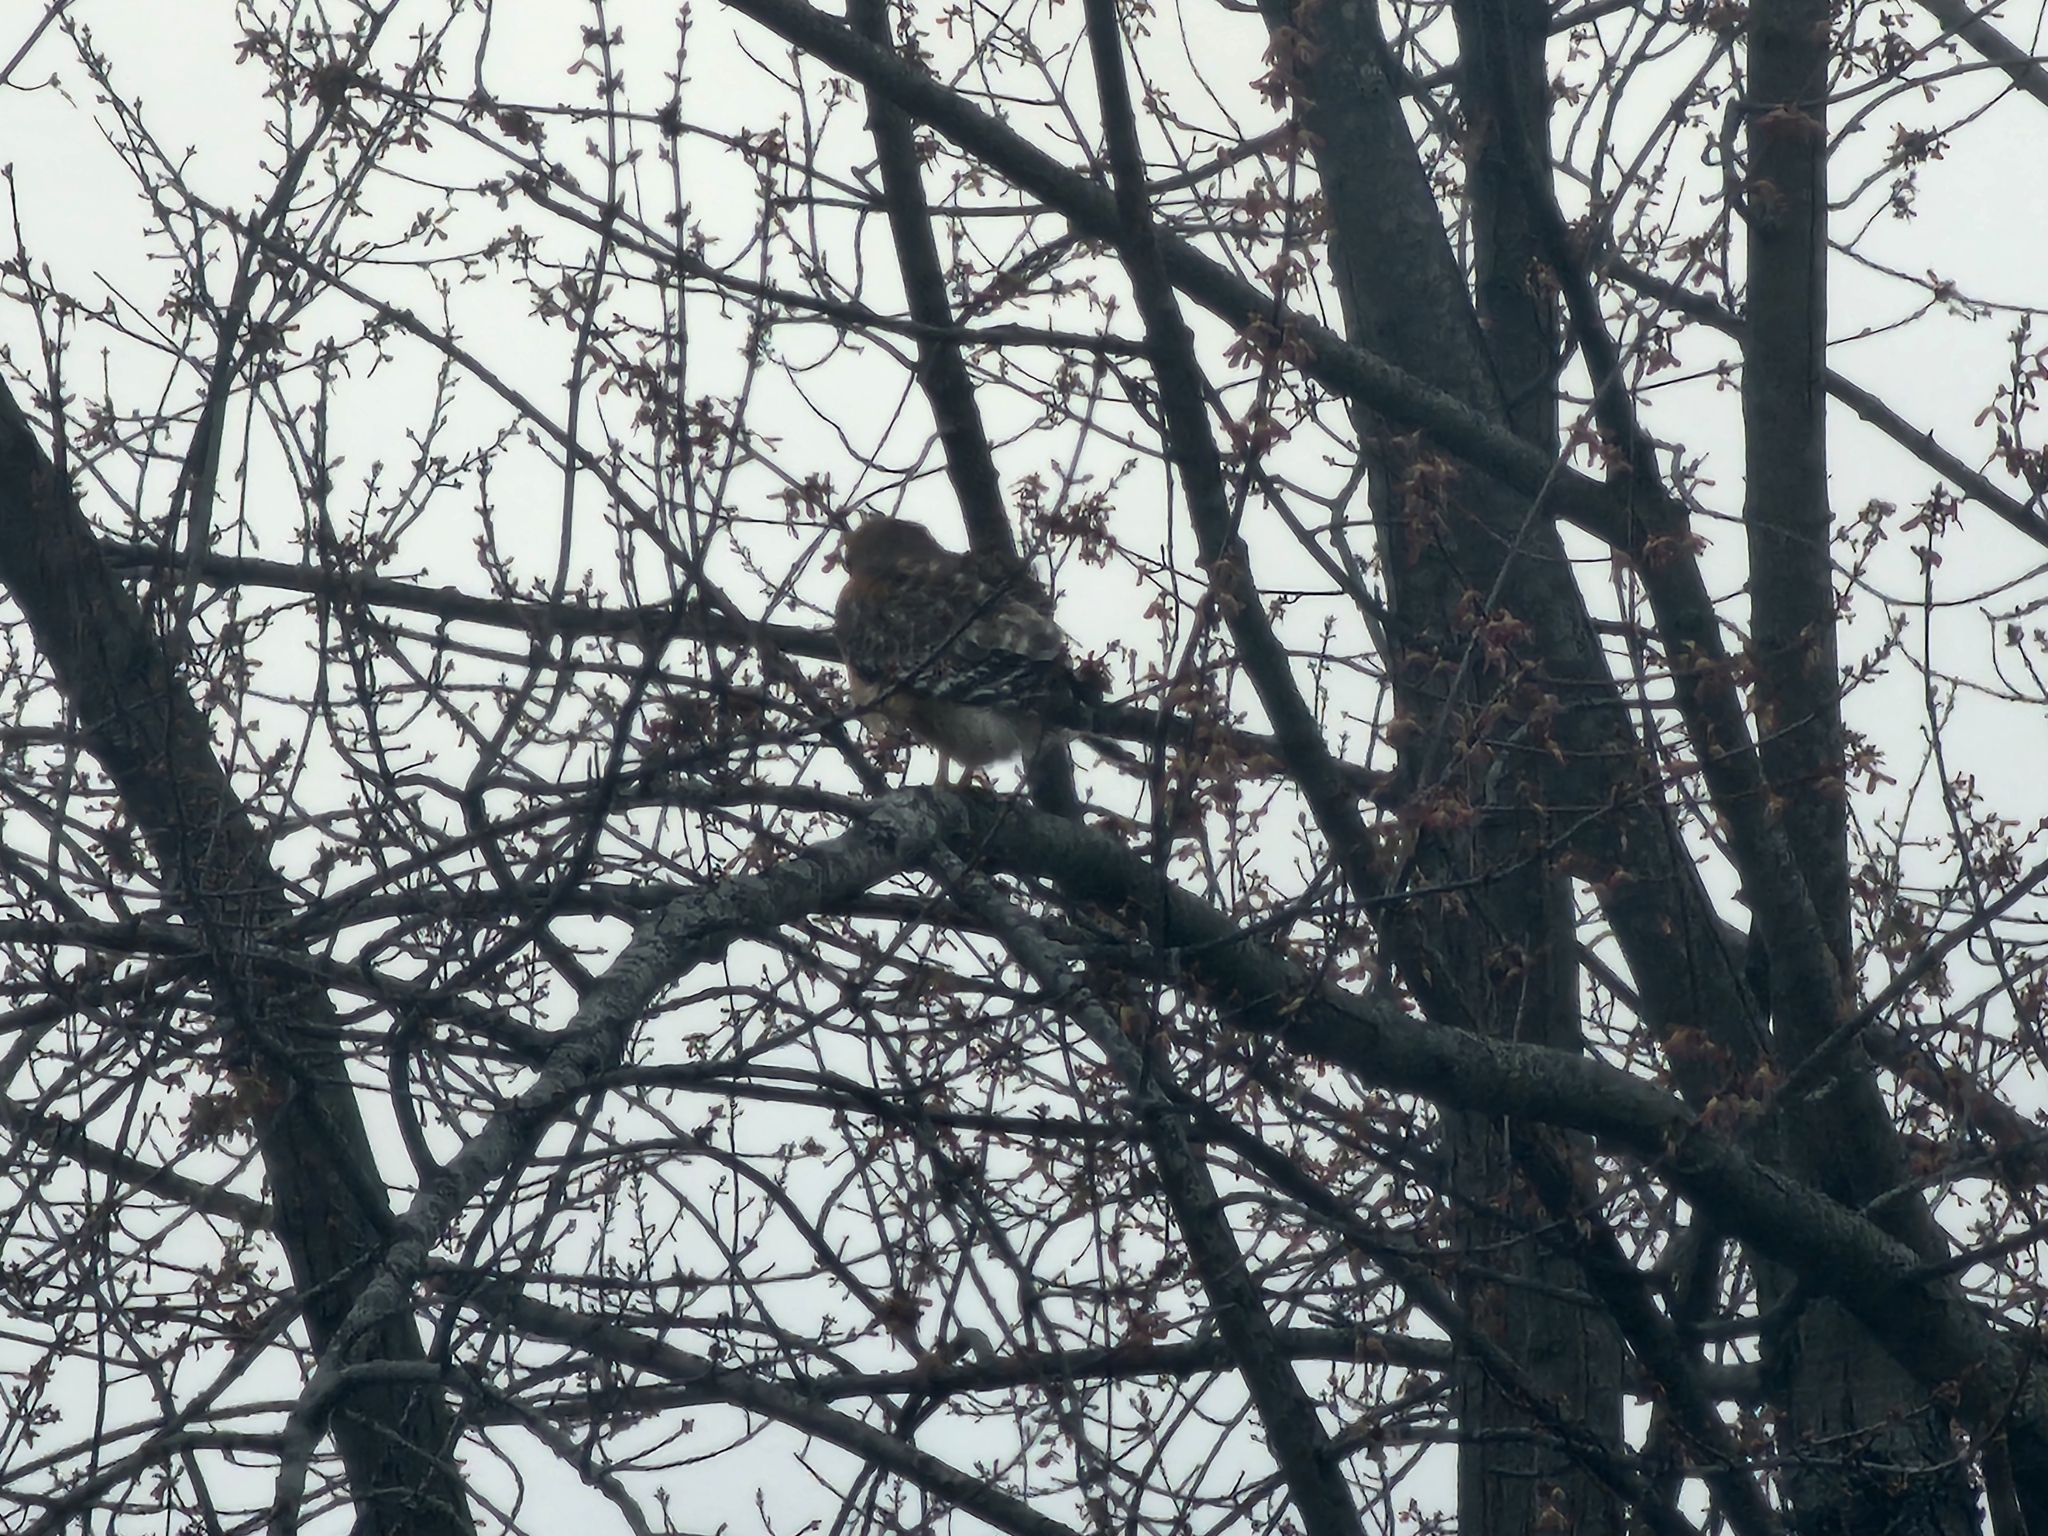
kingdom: Animalia
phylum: Chordata
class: Aves
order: Accipitriformes
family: Accipitridae
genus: Buteo
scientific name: Buteo lineatus
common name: Red-shouldered hawk
